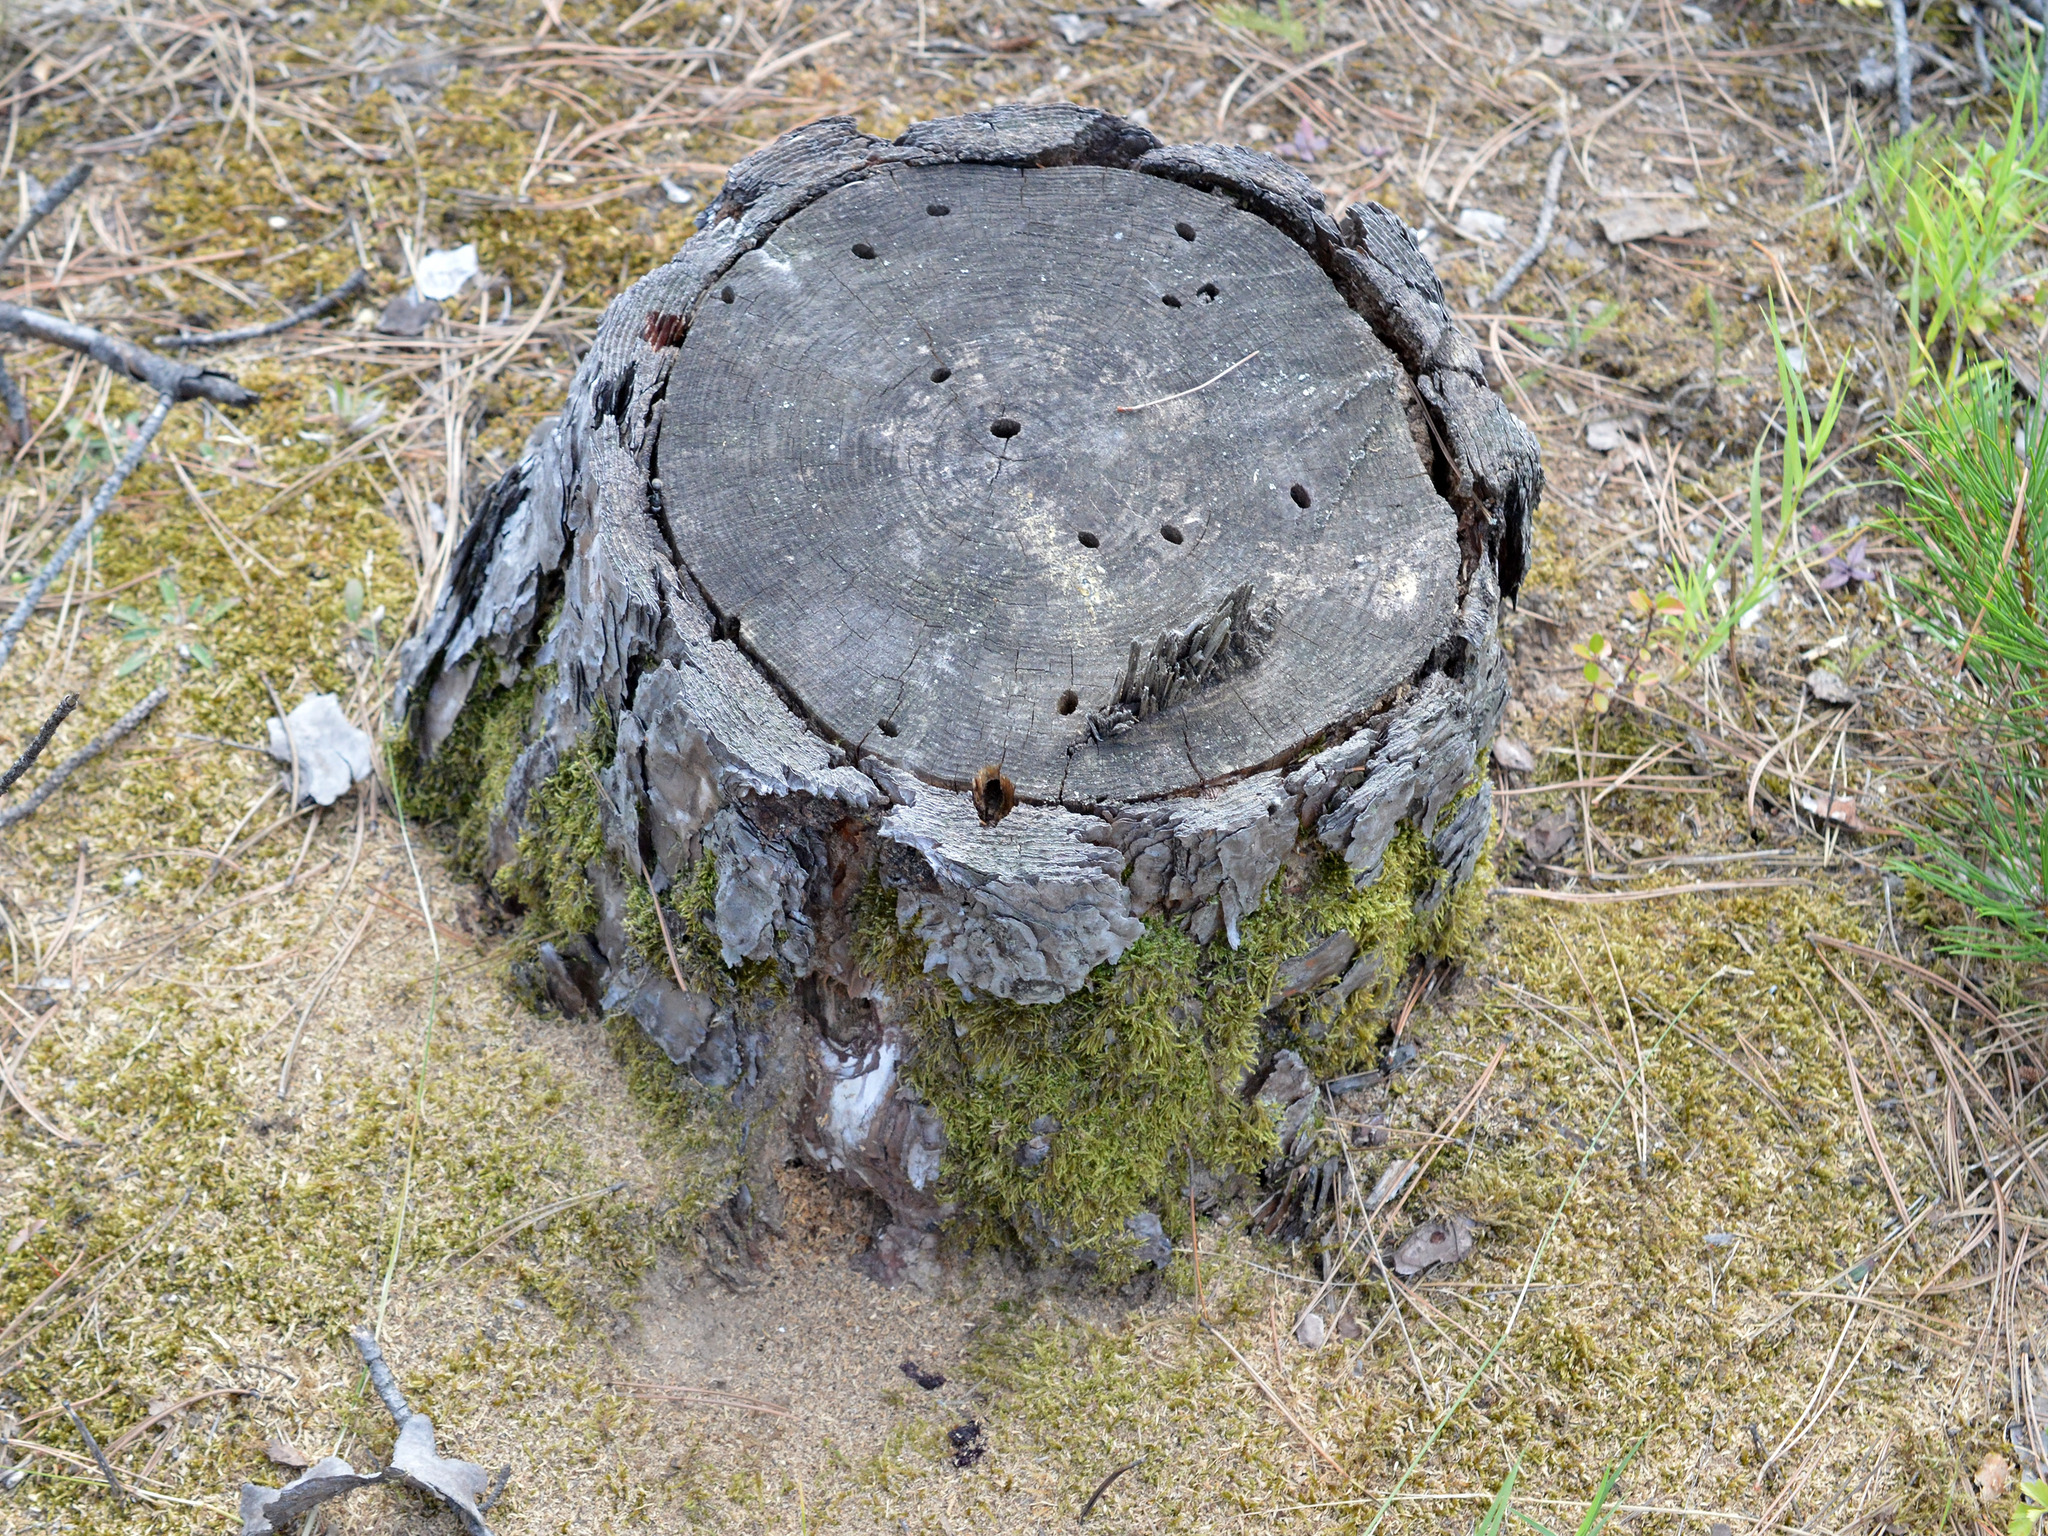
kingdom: Animalia
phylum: Arthropoda
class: Insecta
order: Hymenoptera
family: Formicidae
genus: Camponotus
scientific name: Camponotus vagus
